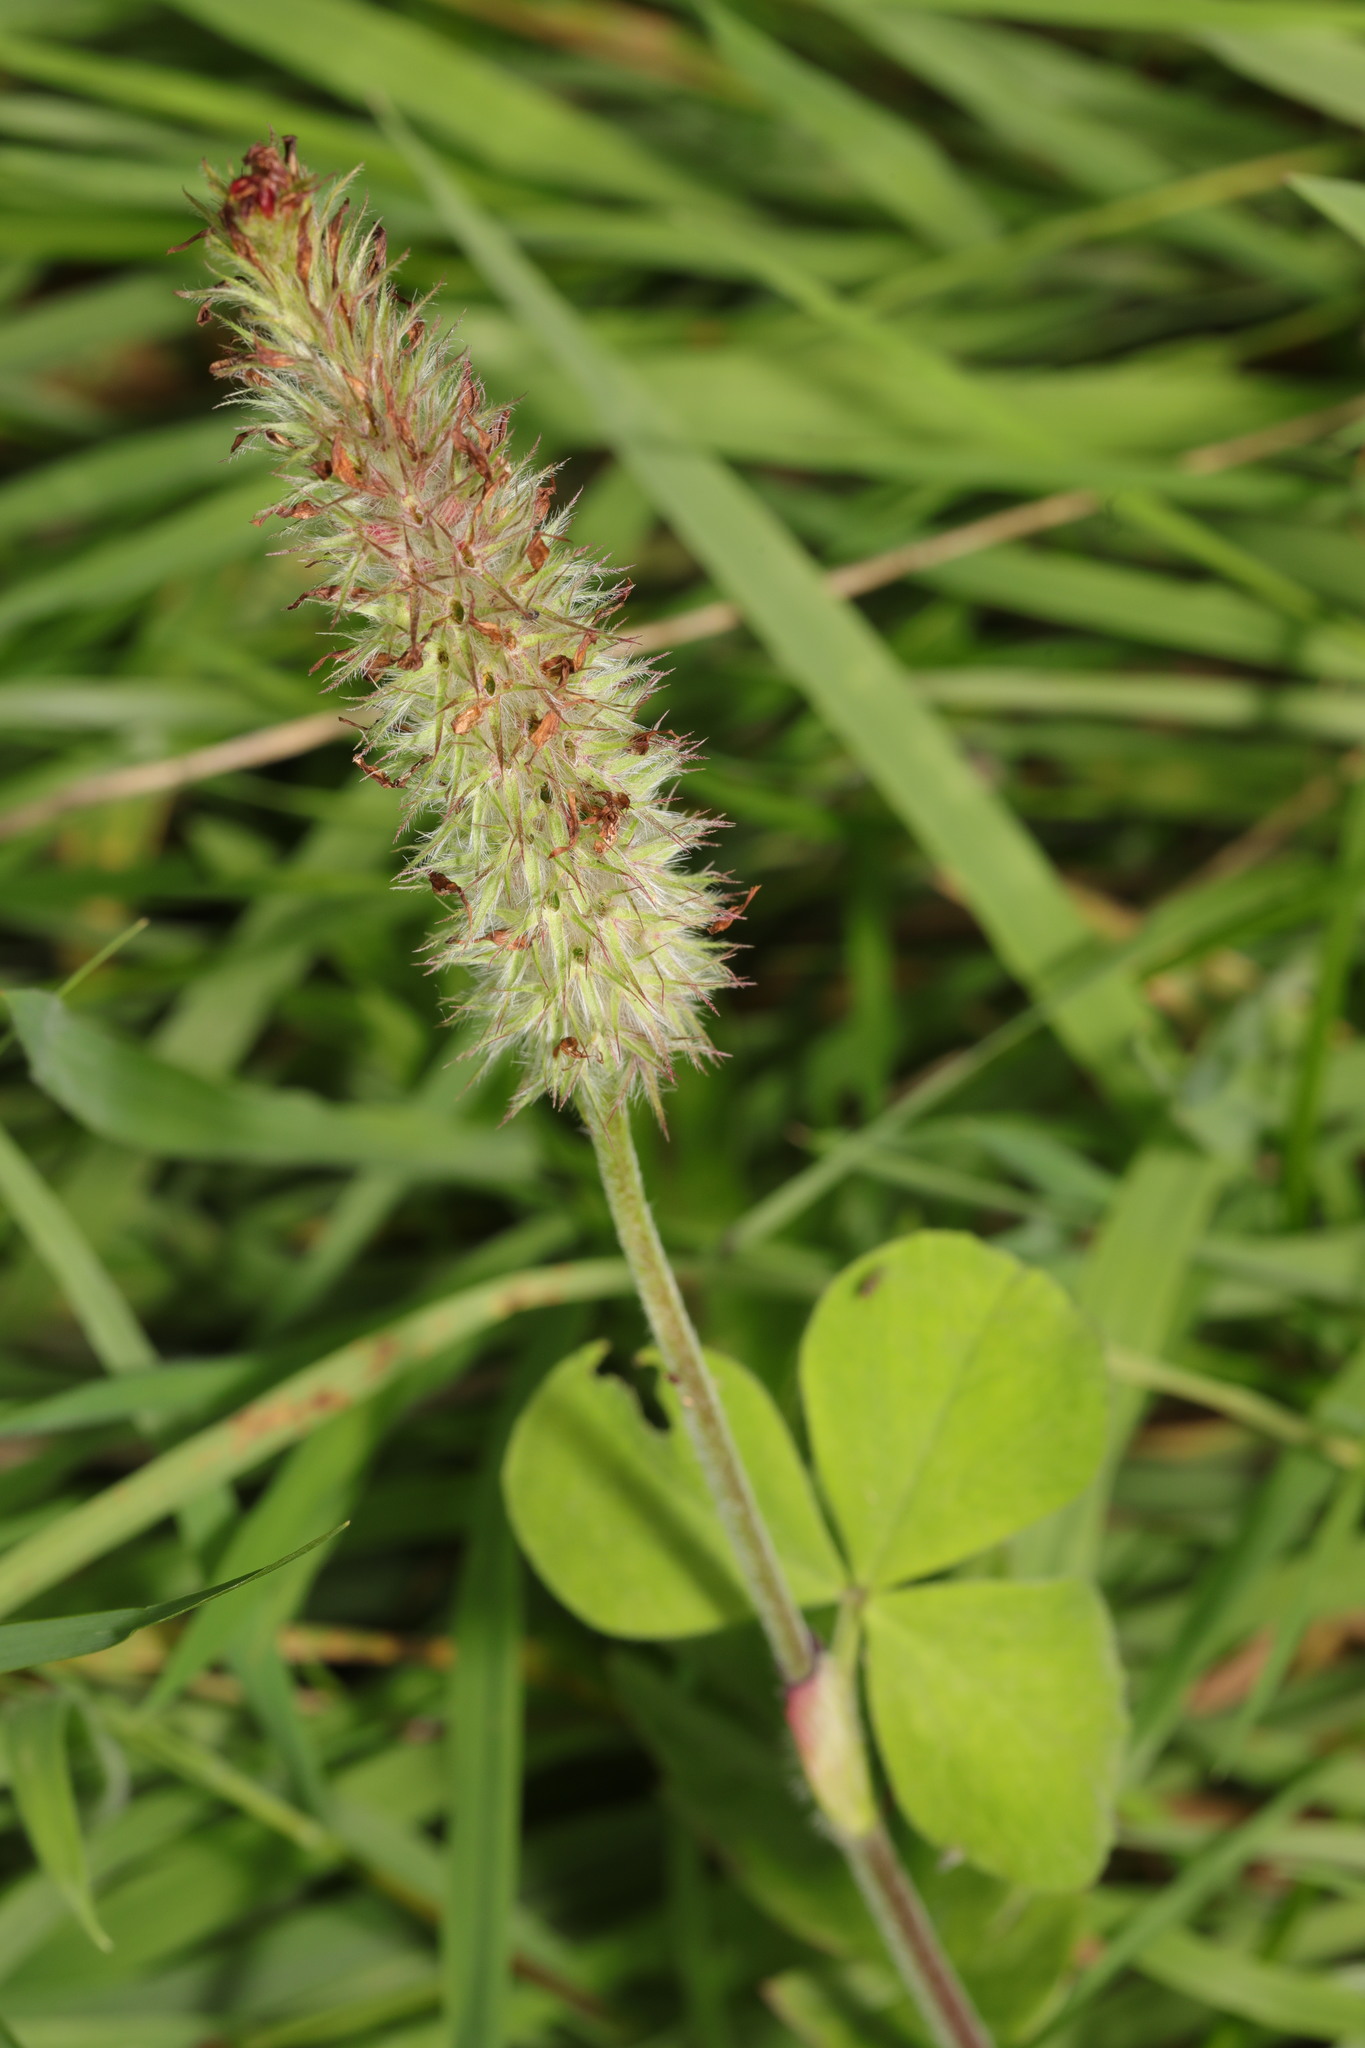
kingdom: Plantae
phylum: Tracheophyta
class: Magnoliopsida
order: Fabales
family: Fabaceae
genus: Trifolium
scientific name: Trifolium incarnatum
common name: Crimson clover
